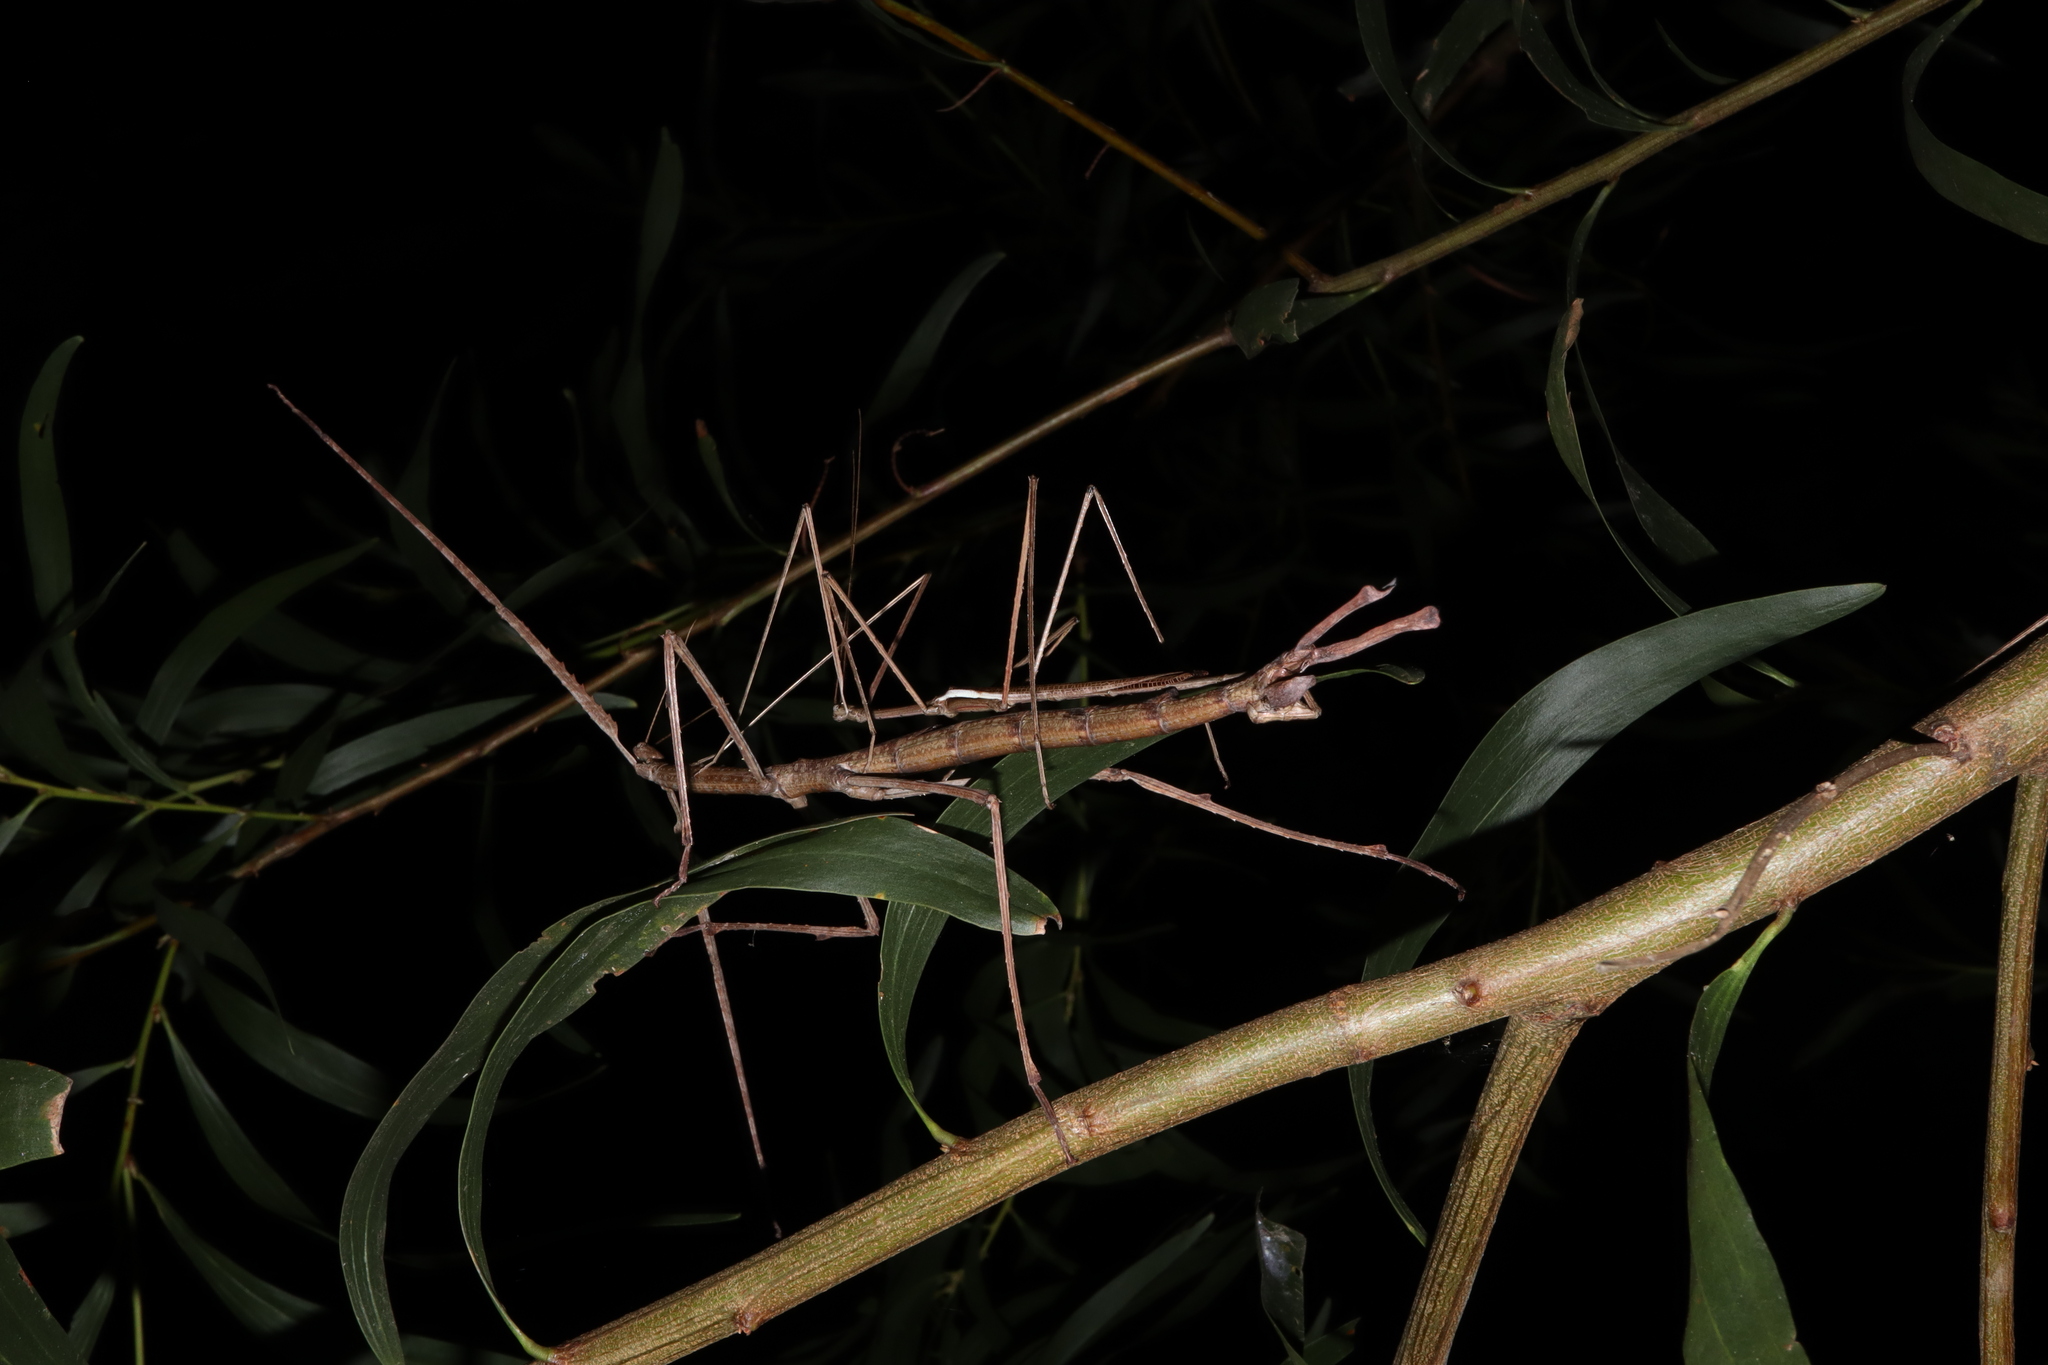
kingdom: Animalia
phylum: Arthropoda
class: Insecta
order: Phasmida
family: Phasmatidae
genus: Ctenomorpha
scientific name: Ctenomorpha marginipennis
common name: Margined-winged stick-insect
